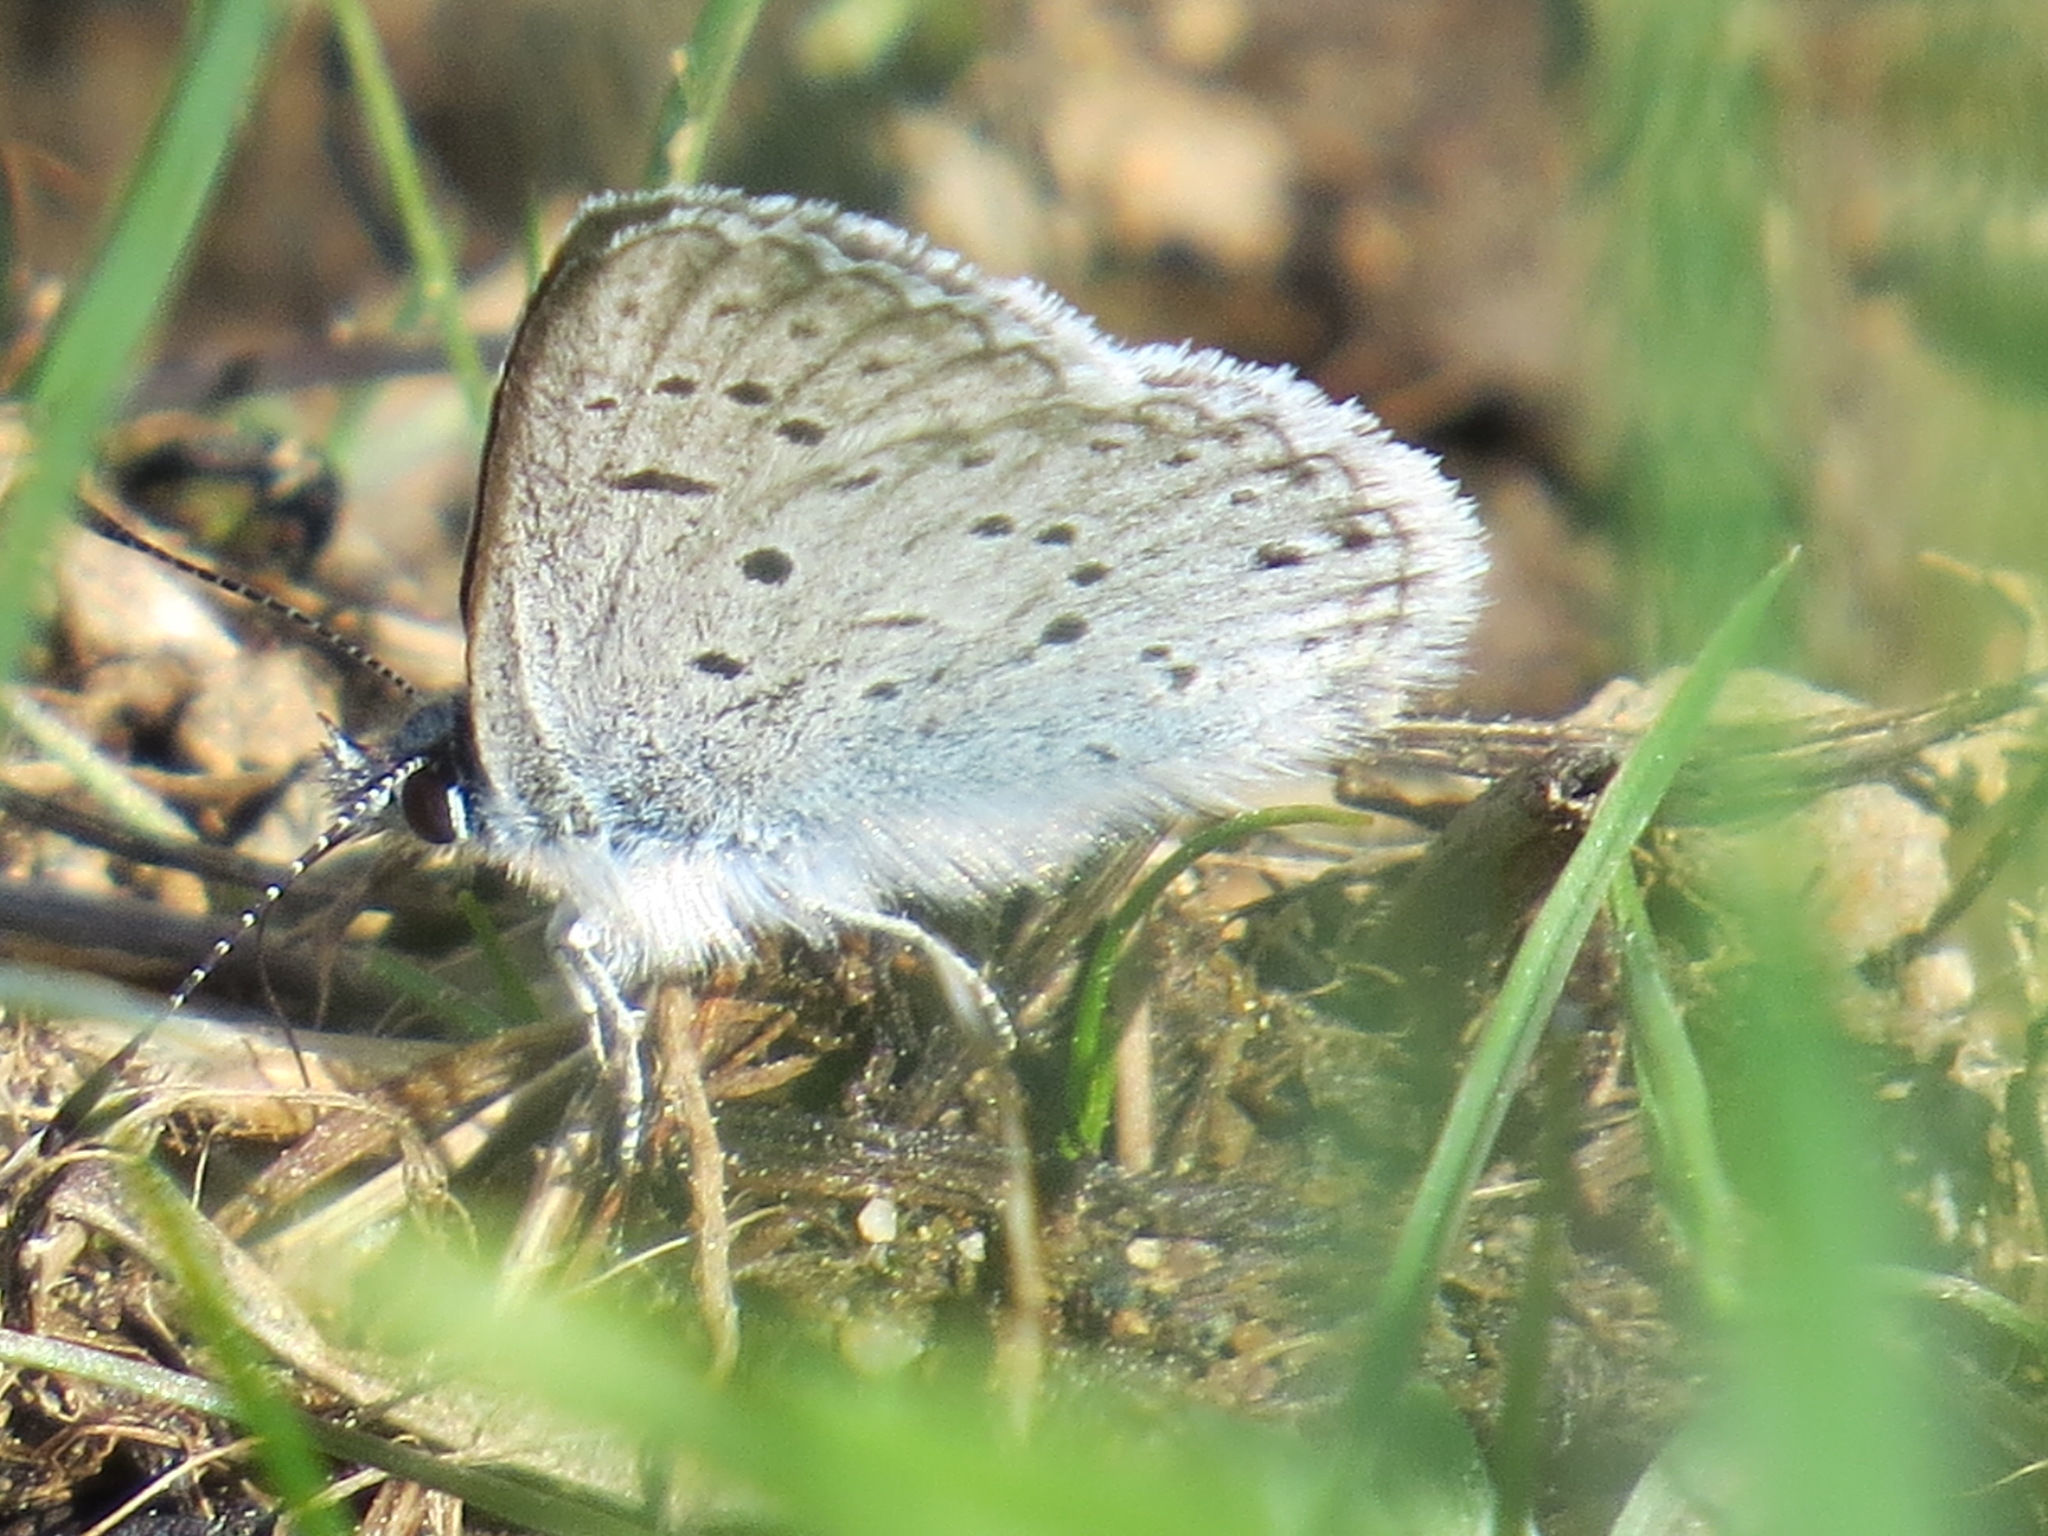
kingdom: Animalia
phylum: Arthropoda
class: Insecta
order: Lepidoptera
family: Lycaenidae
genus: Icaricia
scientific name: Icaricia saepiolus
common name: Greenish blue
